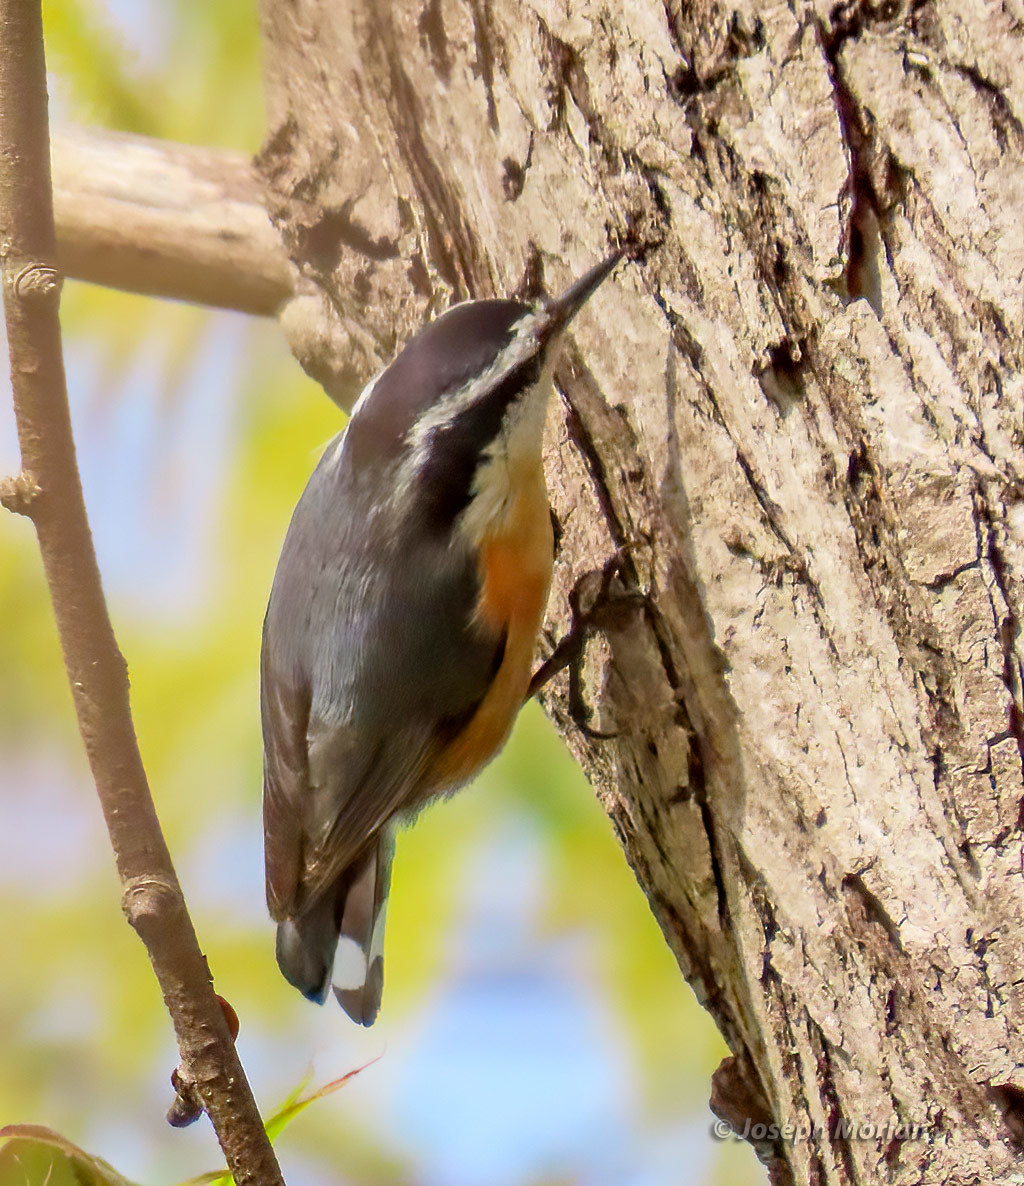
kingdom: Animalia
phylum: Chordata
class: Aves
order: Passeriformes
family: Sittidae
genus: Sitta
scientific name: Sitta canadensis
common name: Red-breasted nuthatch
